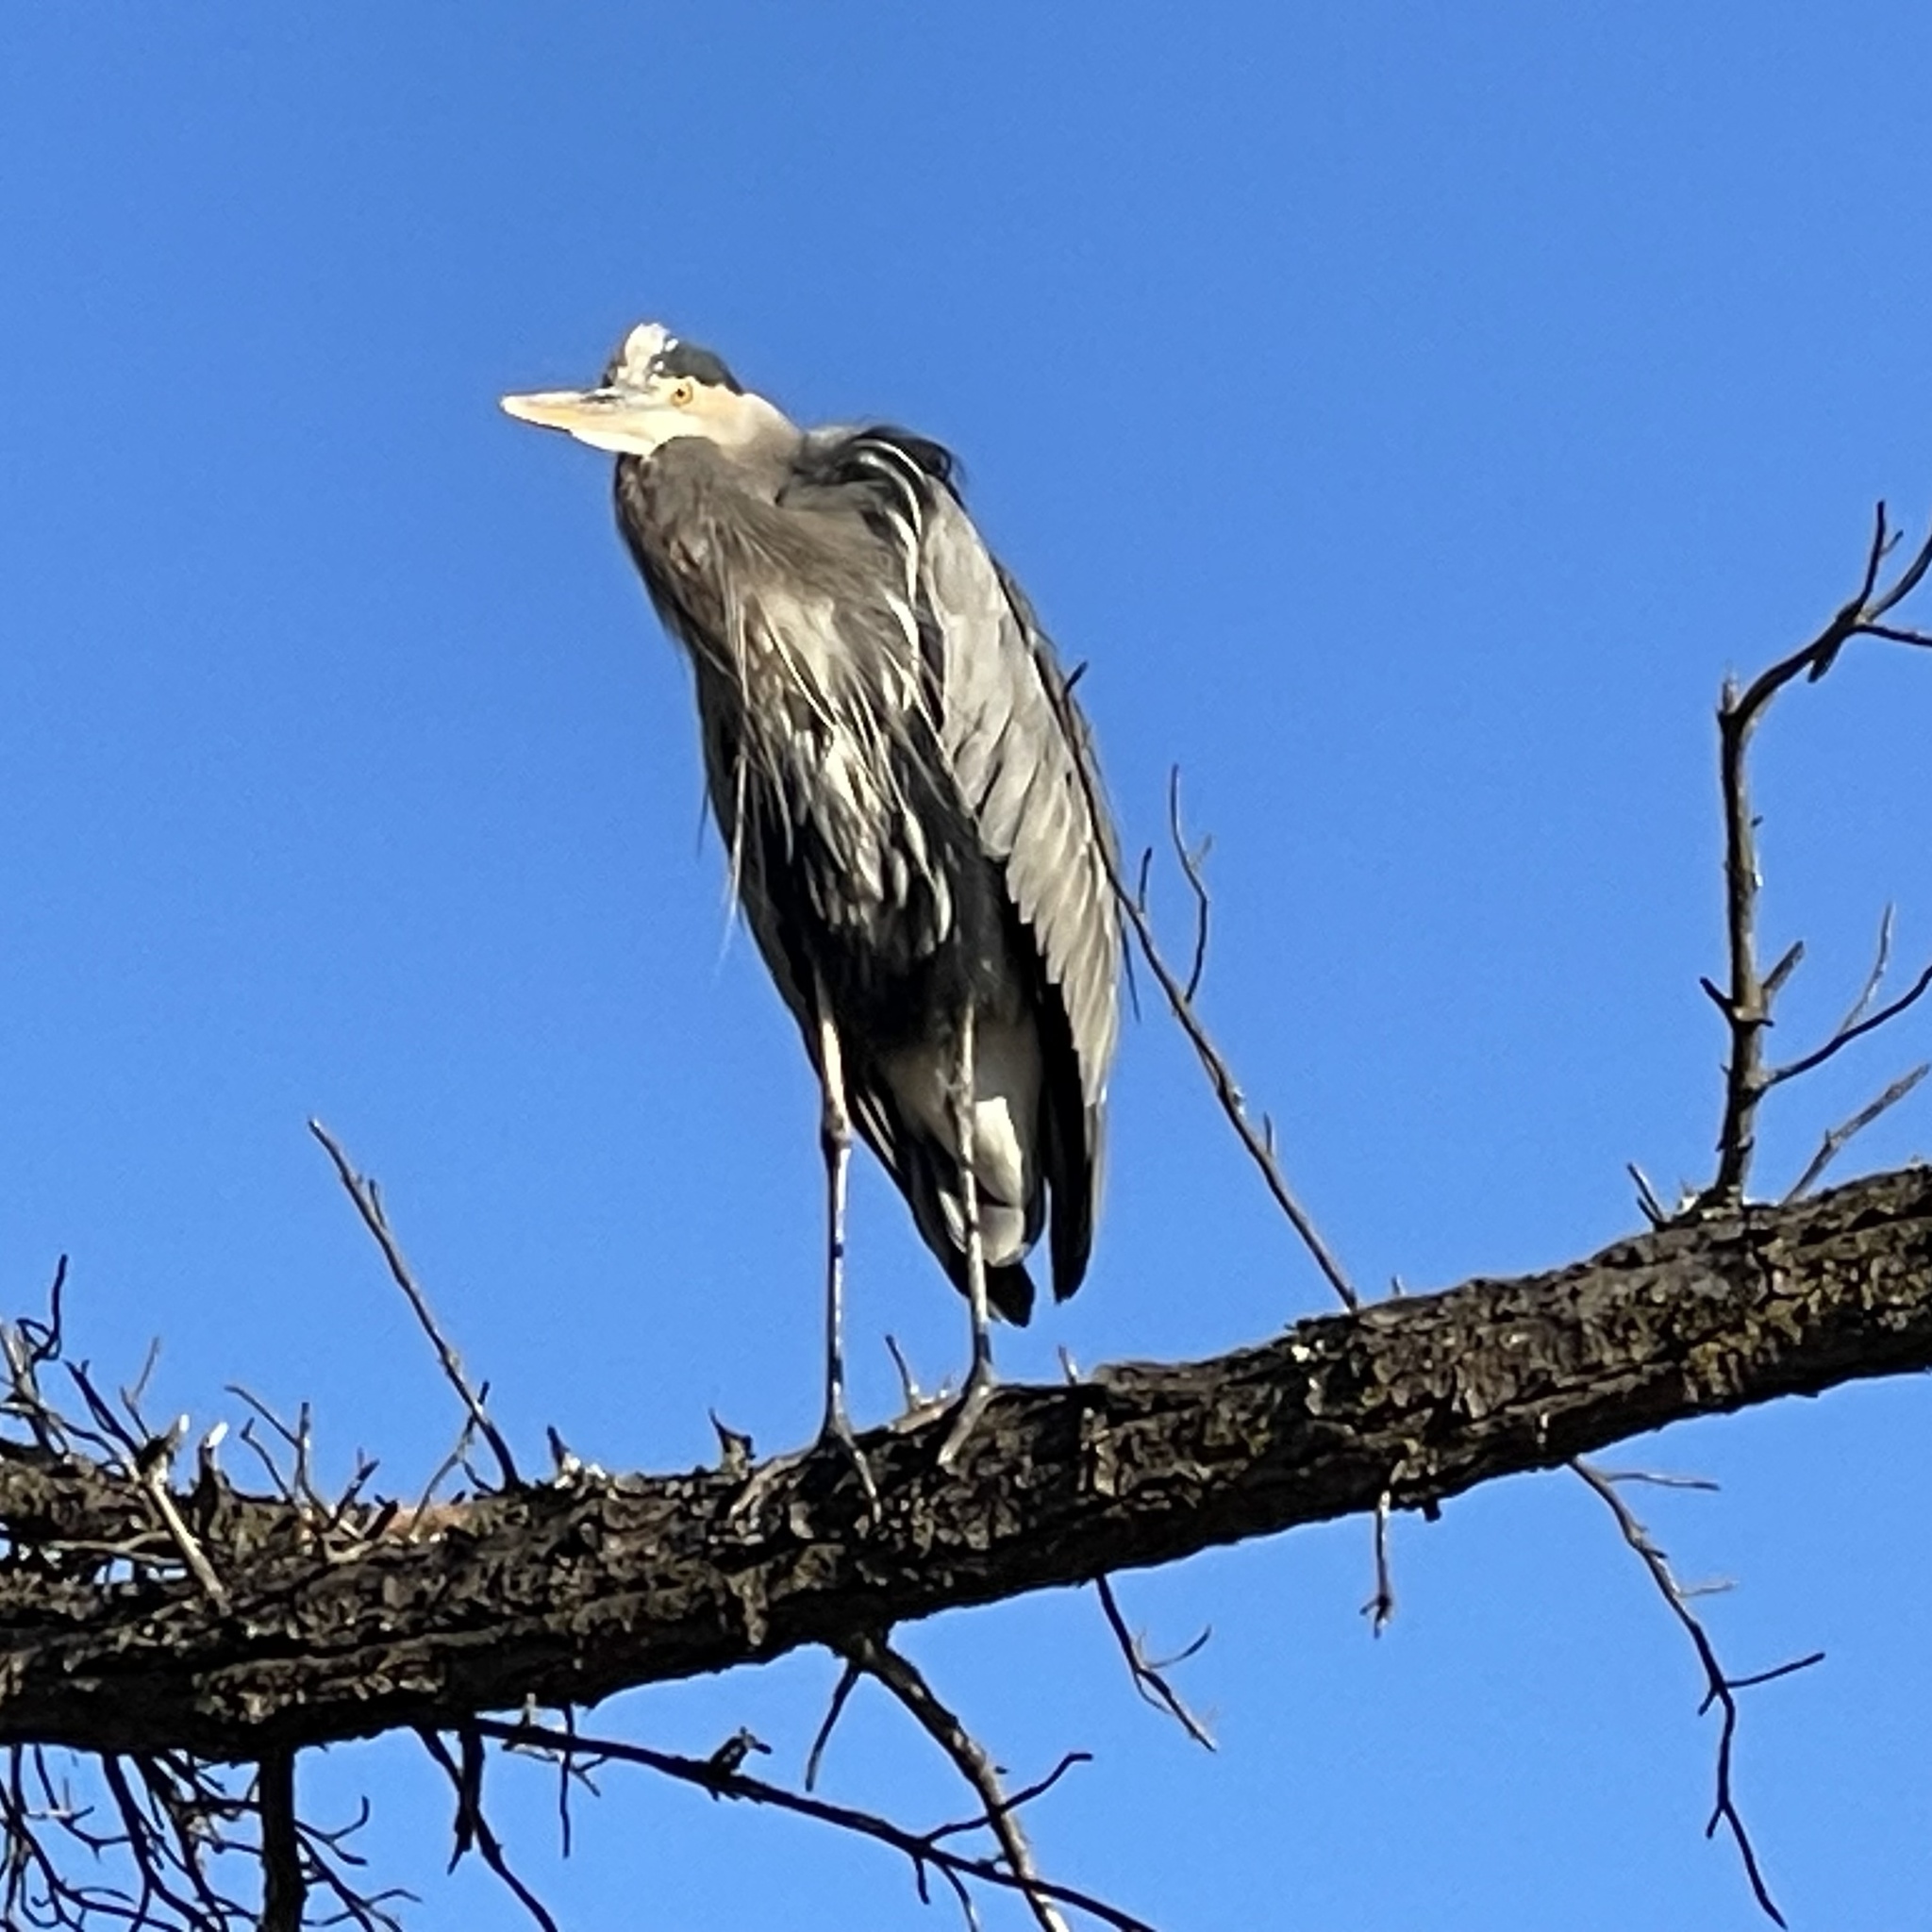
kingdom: Animalia
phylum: Chordata
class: Aves
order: Pelecaniformes
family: Ardeidae
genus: Ardea
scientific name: Ardea herodias
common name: Great blue heron
